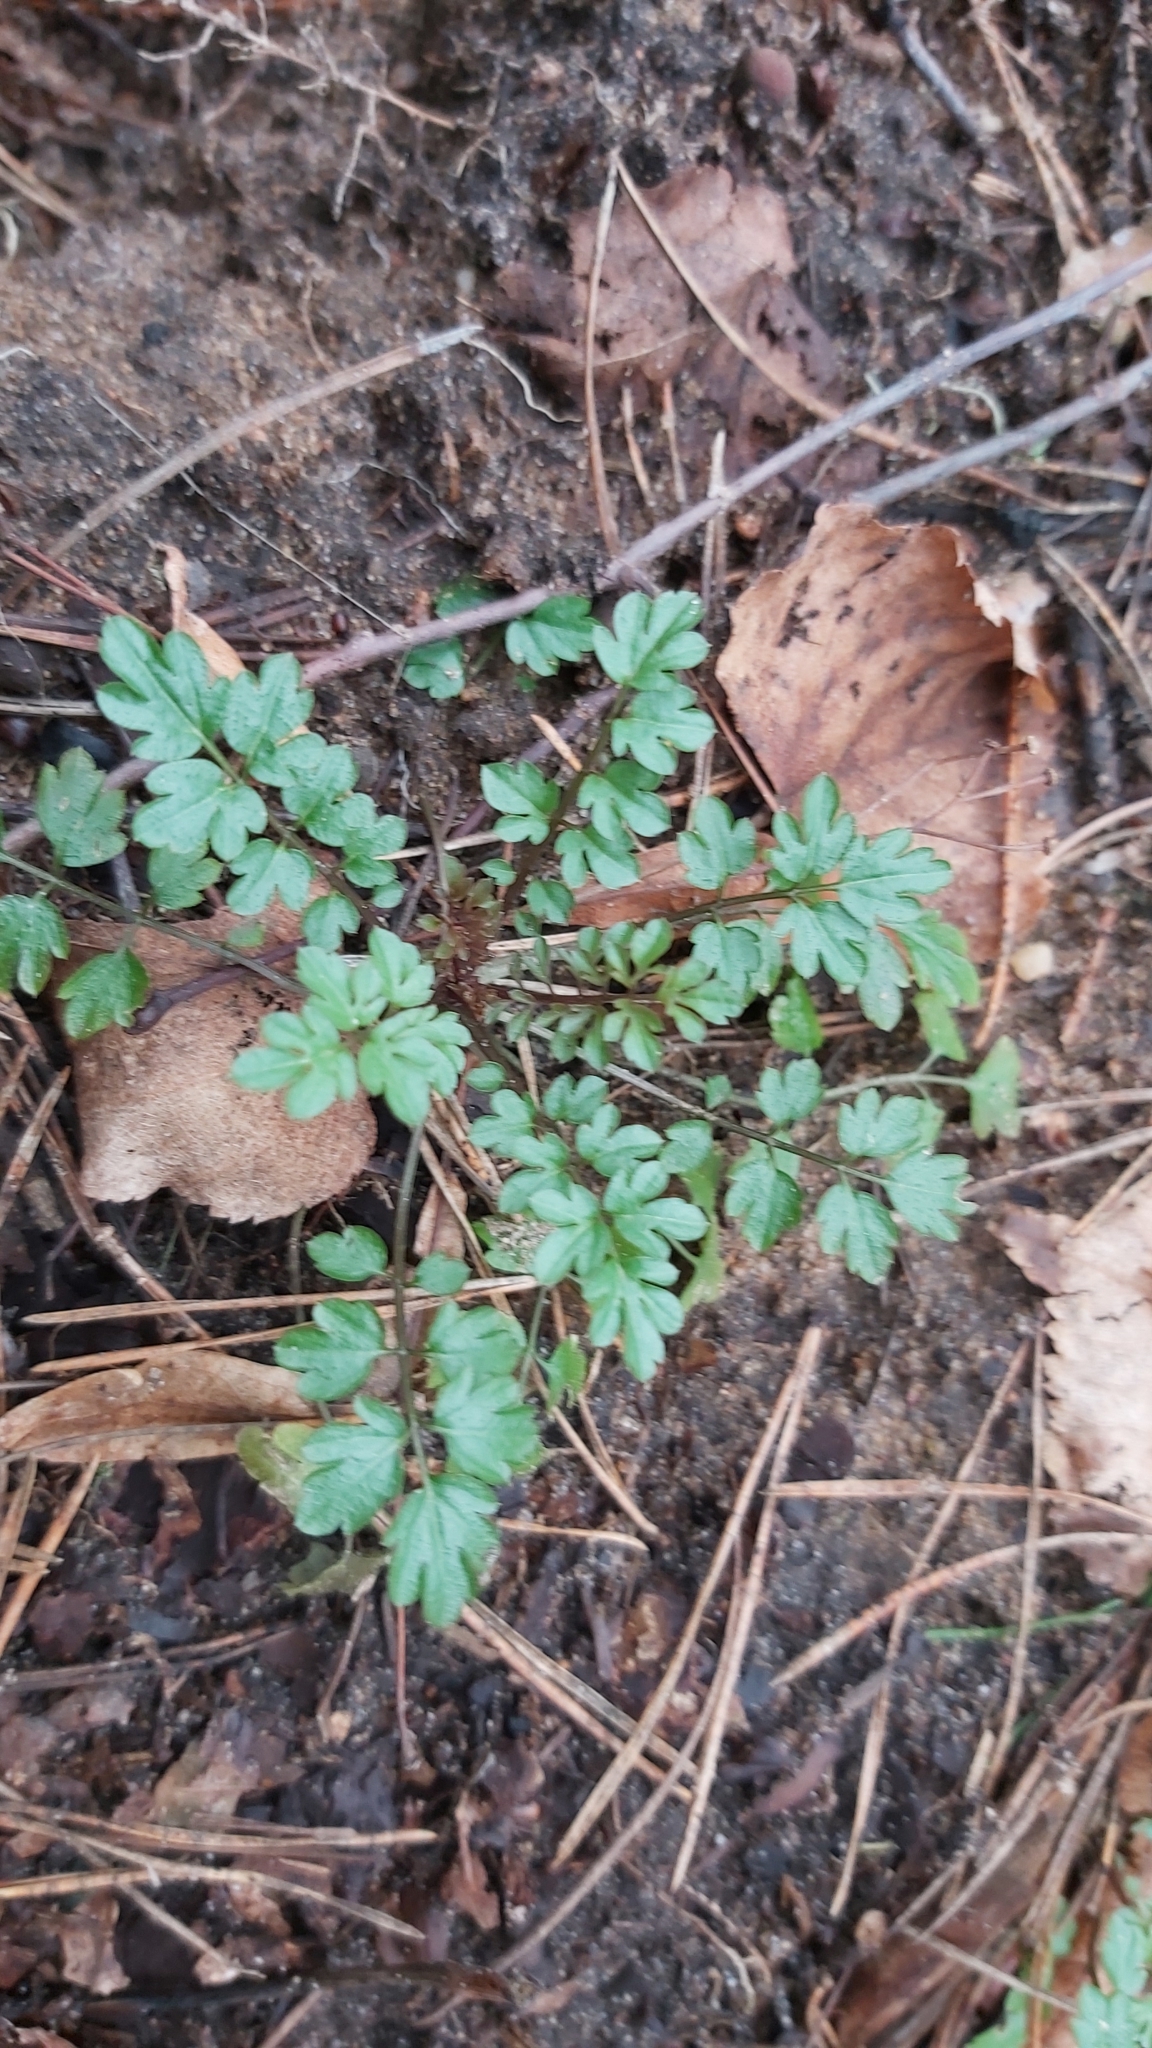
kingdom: Plantae
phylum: Tracheophyta
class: Magnoliopsida
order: Brassicales
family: Brassicaceae
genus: Cardamine
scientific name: Cardamine impatiens
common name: Narrow-leaved bitter-cress
